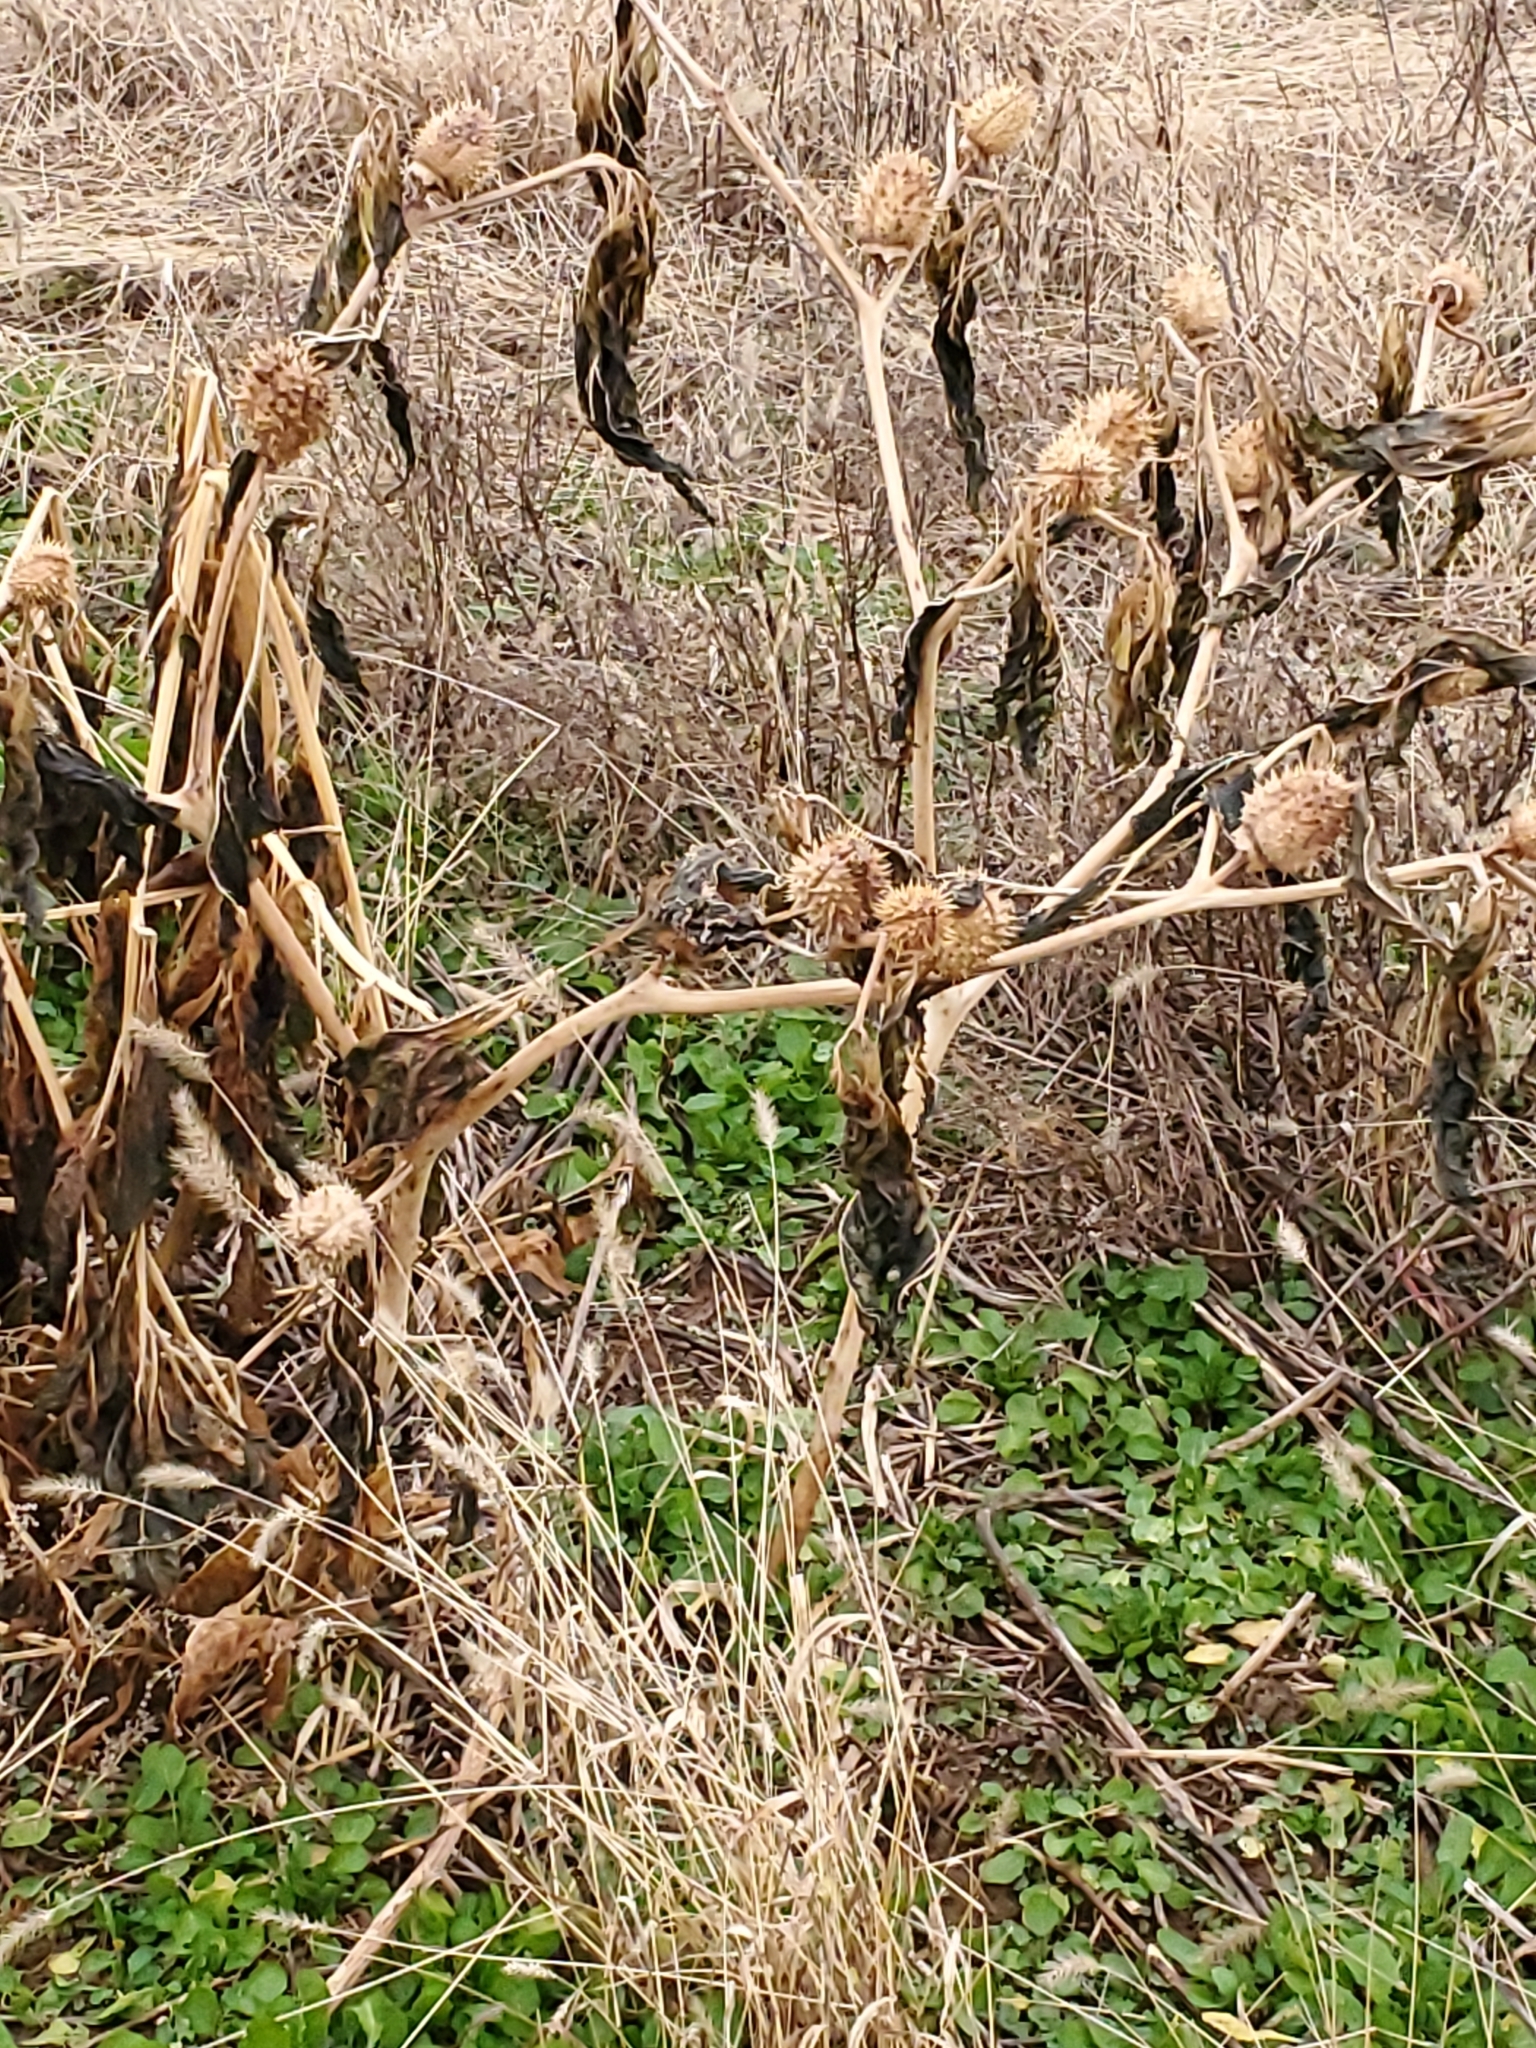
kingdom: Plantae
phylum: Tracheophyta
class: Magnoliopsida
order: Solanales
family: Solanaceae
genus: Datura
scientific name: Datura stramonium
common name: Thorn-apple
